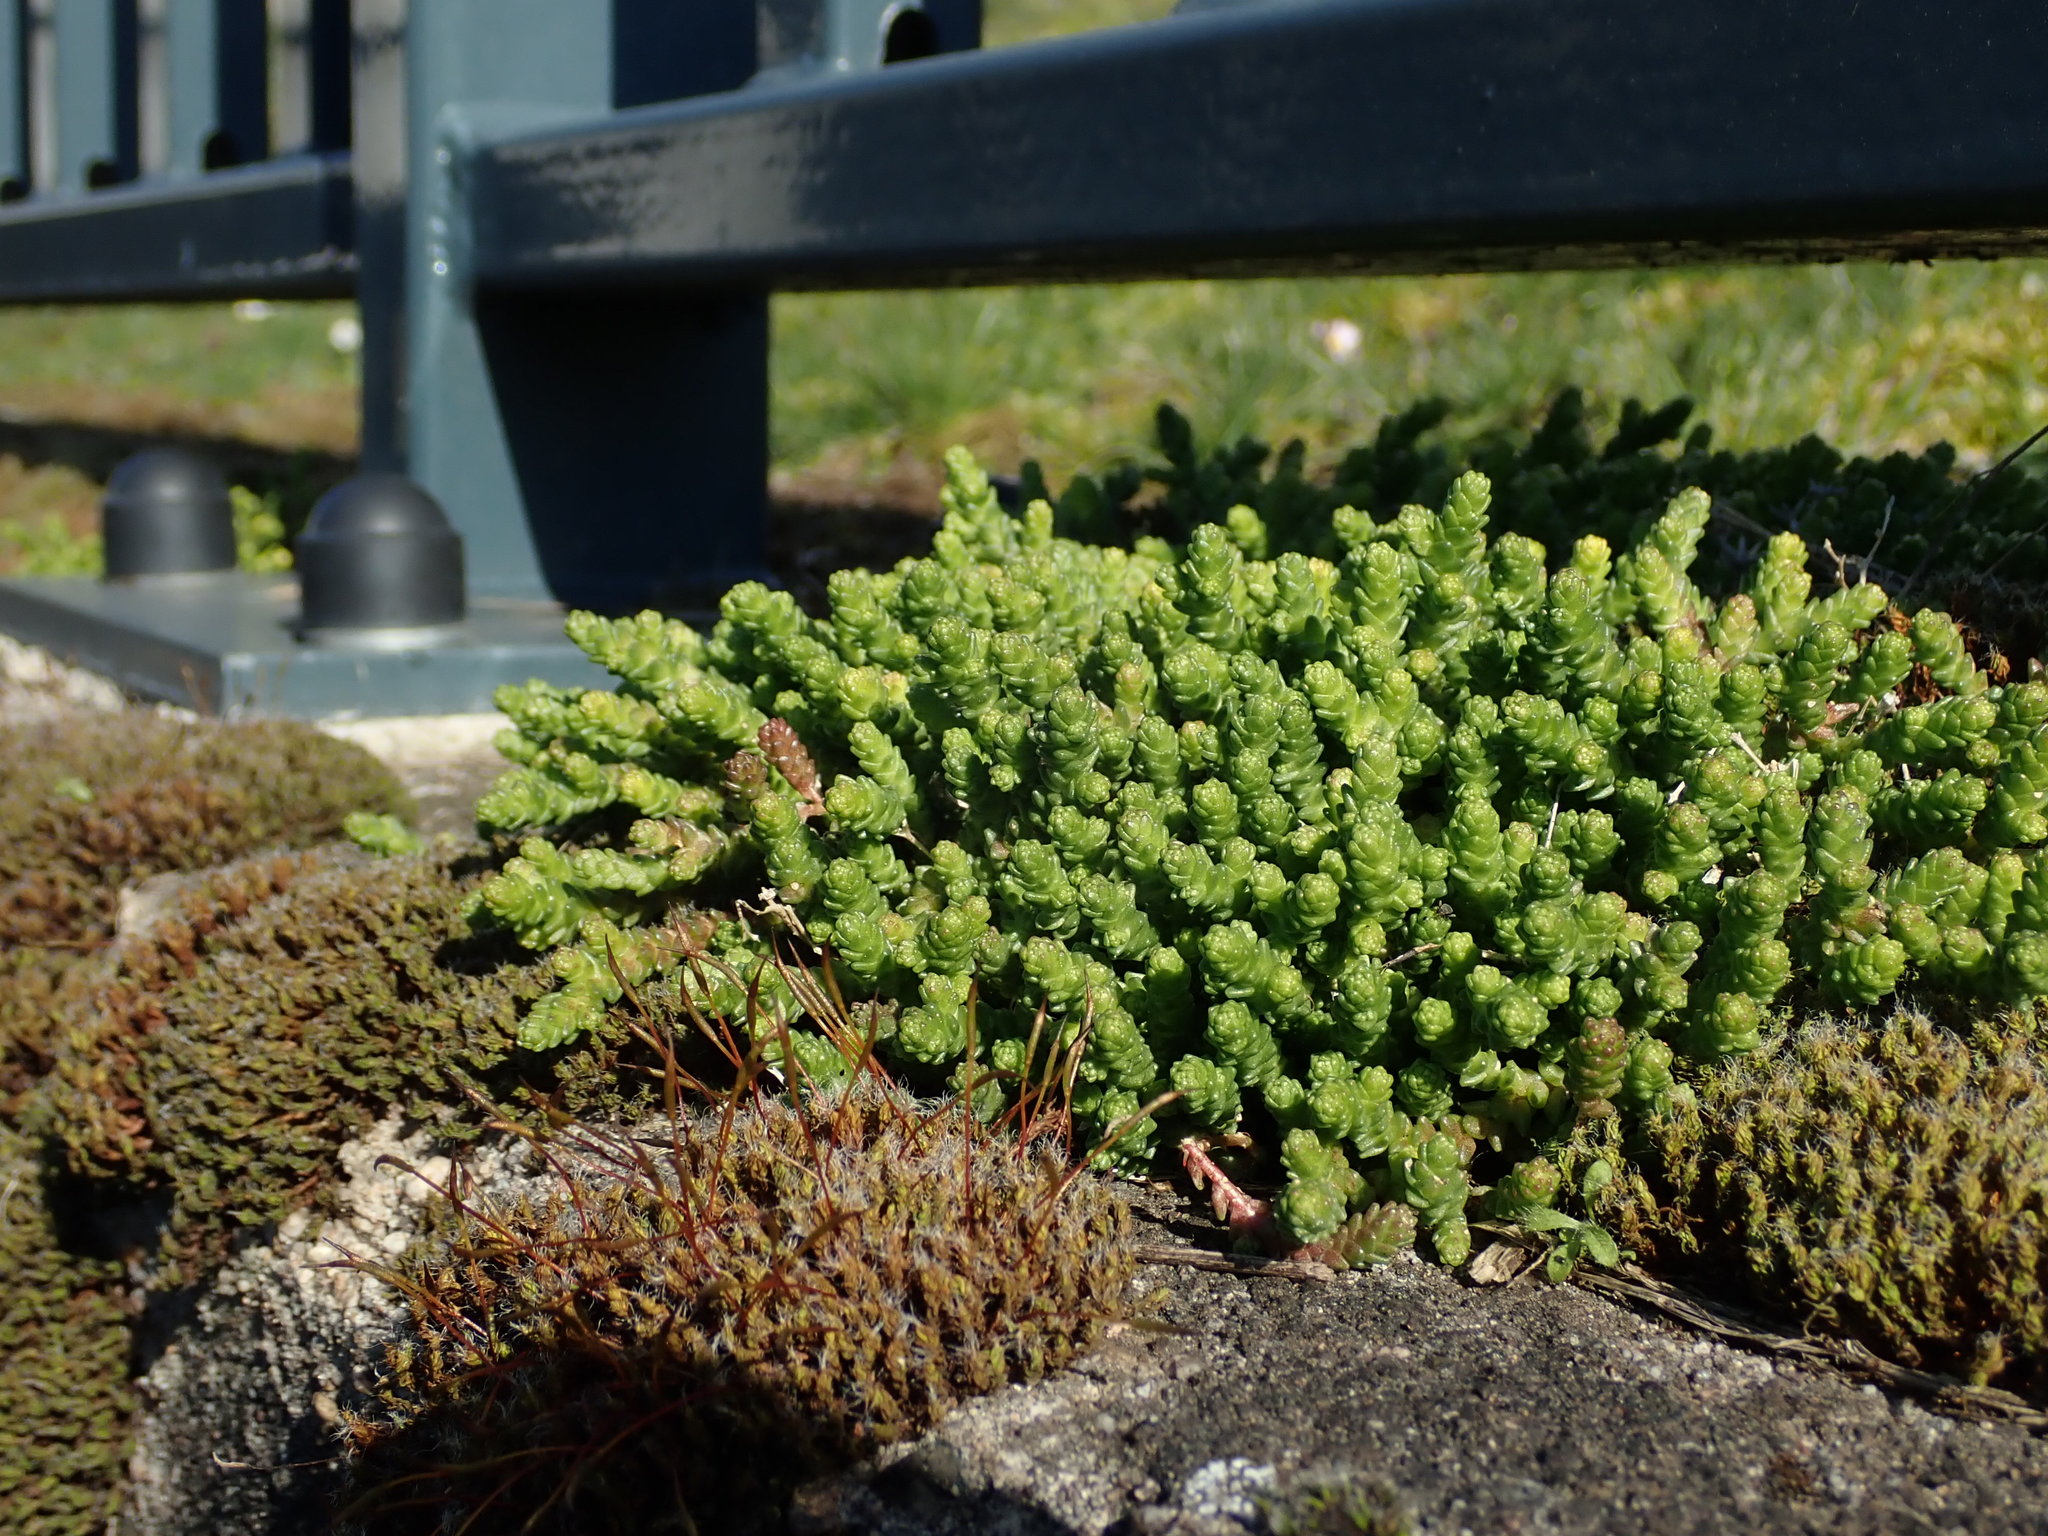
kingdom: Plantae
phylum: Tracheophyta
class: Magnoliopsida
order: Saxifragales
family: Crassulaceae
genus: Sedum
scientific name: Sedum acre
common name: Biting stonecrop
